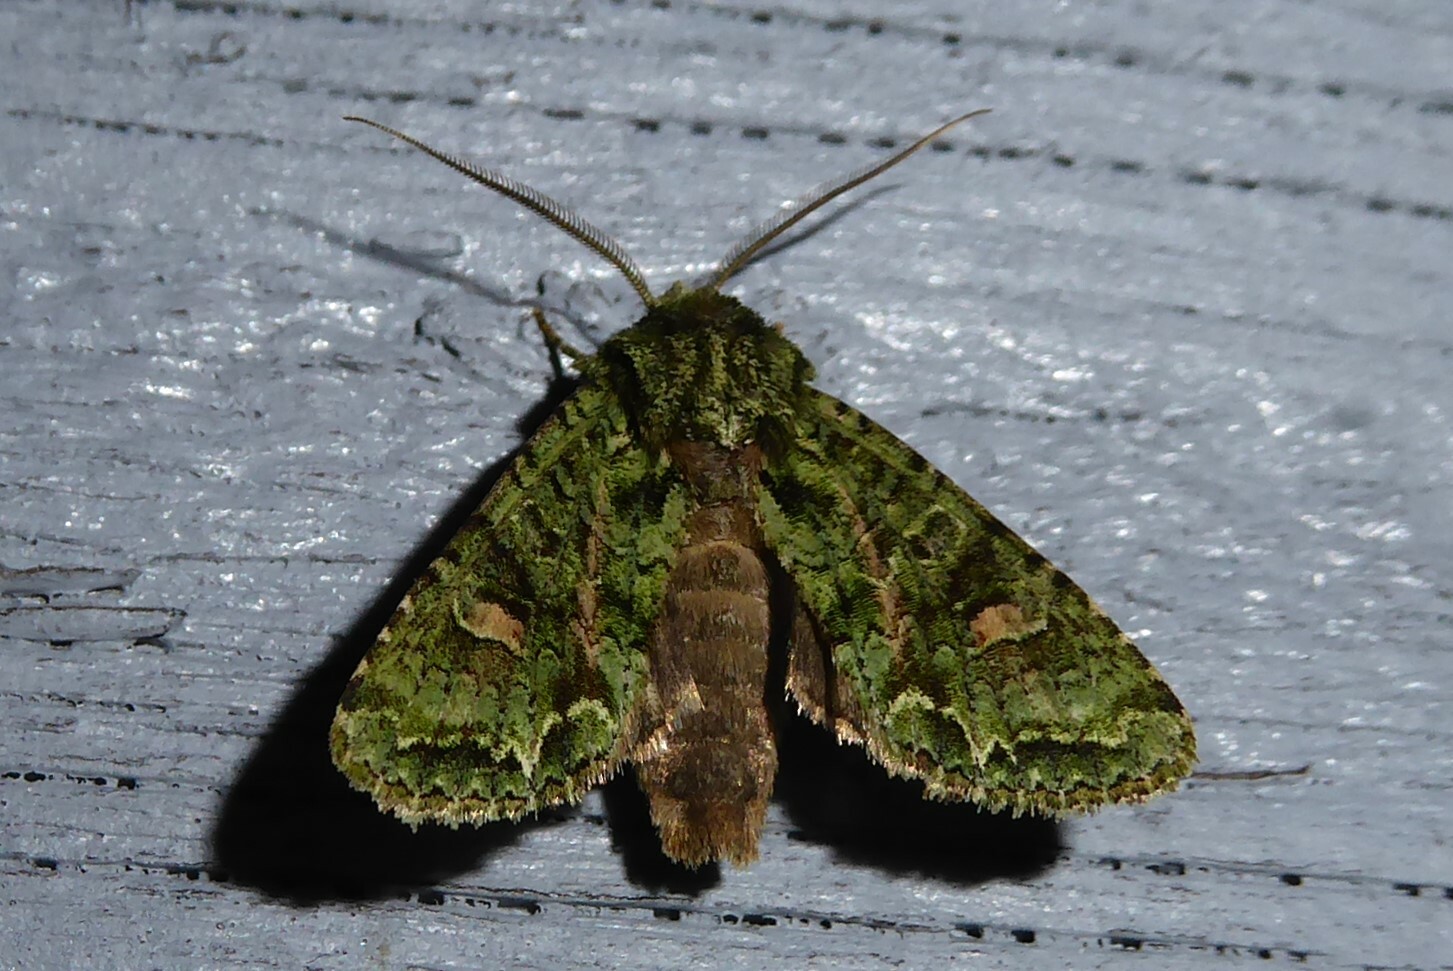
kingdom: Animalia
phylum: Arthropoda
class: Insecta
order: Lepidoptera
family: Noctuidae
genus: Ichneutica
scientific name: Ichneutica
